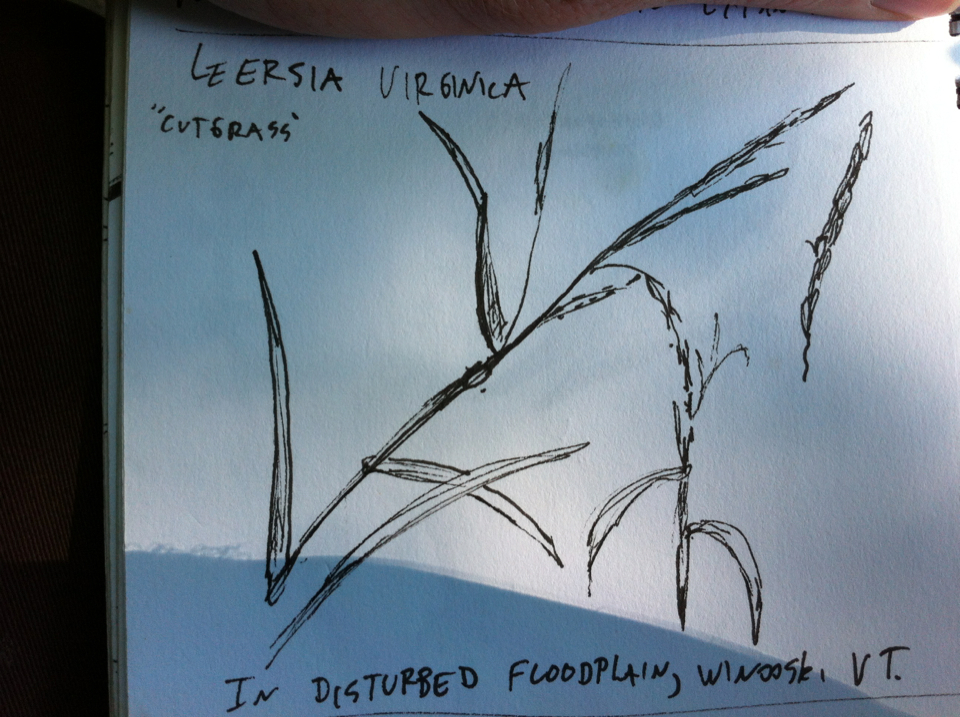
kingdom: Plantae
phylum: Tracheophyta
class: Liliopsida
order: Poales
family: Poaceae
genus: Leersia
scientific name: Leersia virginica
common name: White cutgrass
